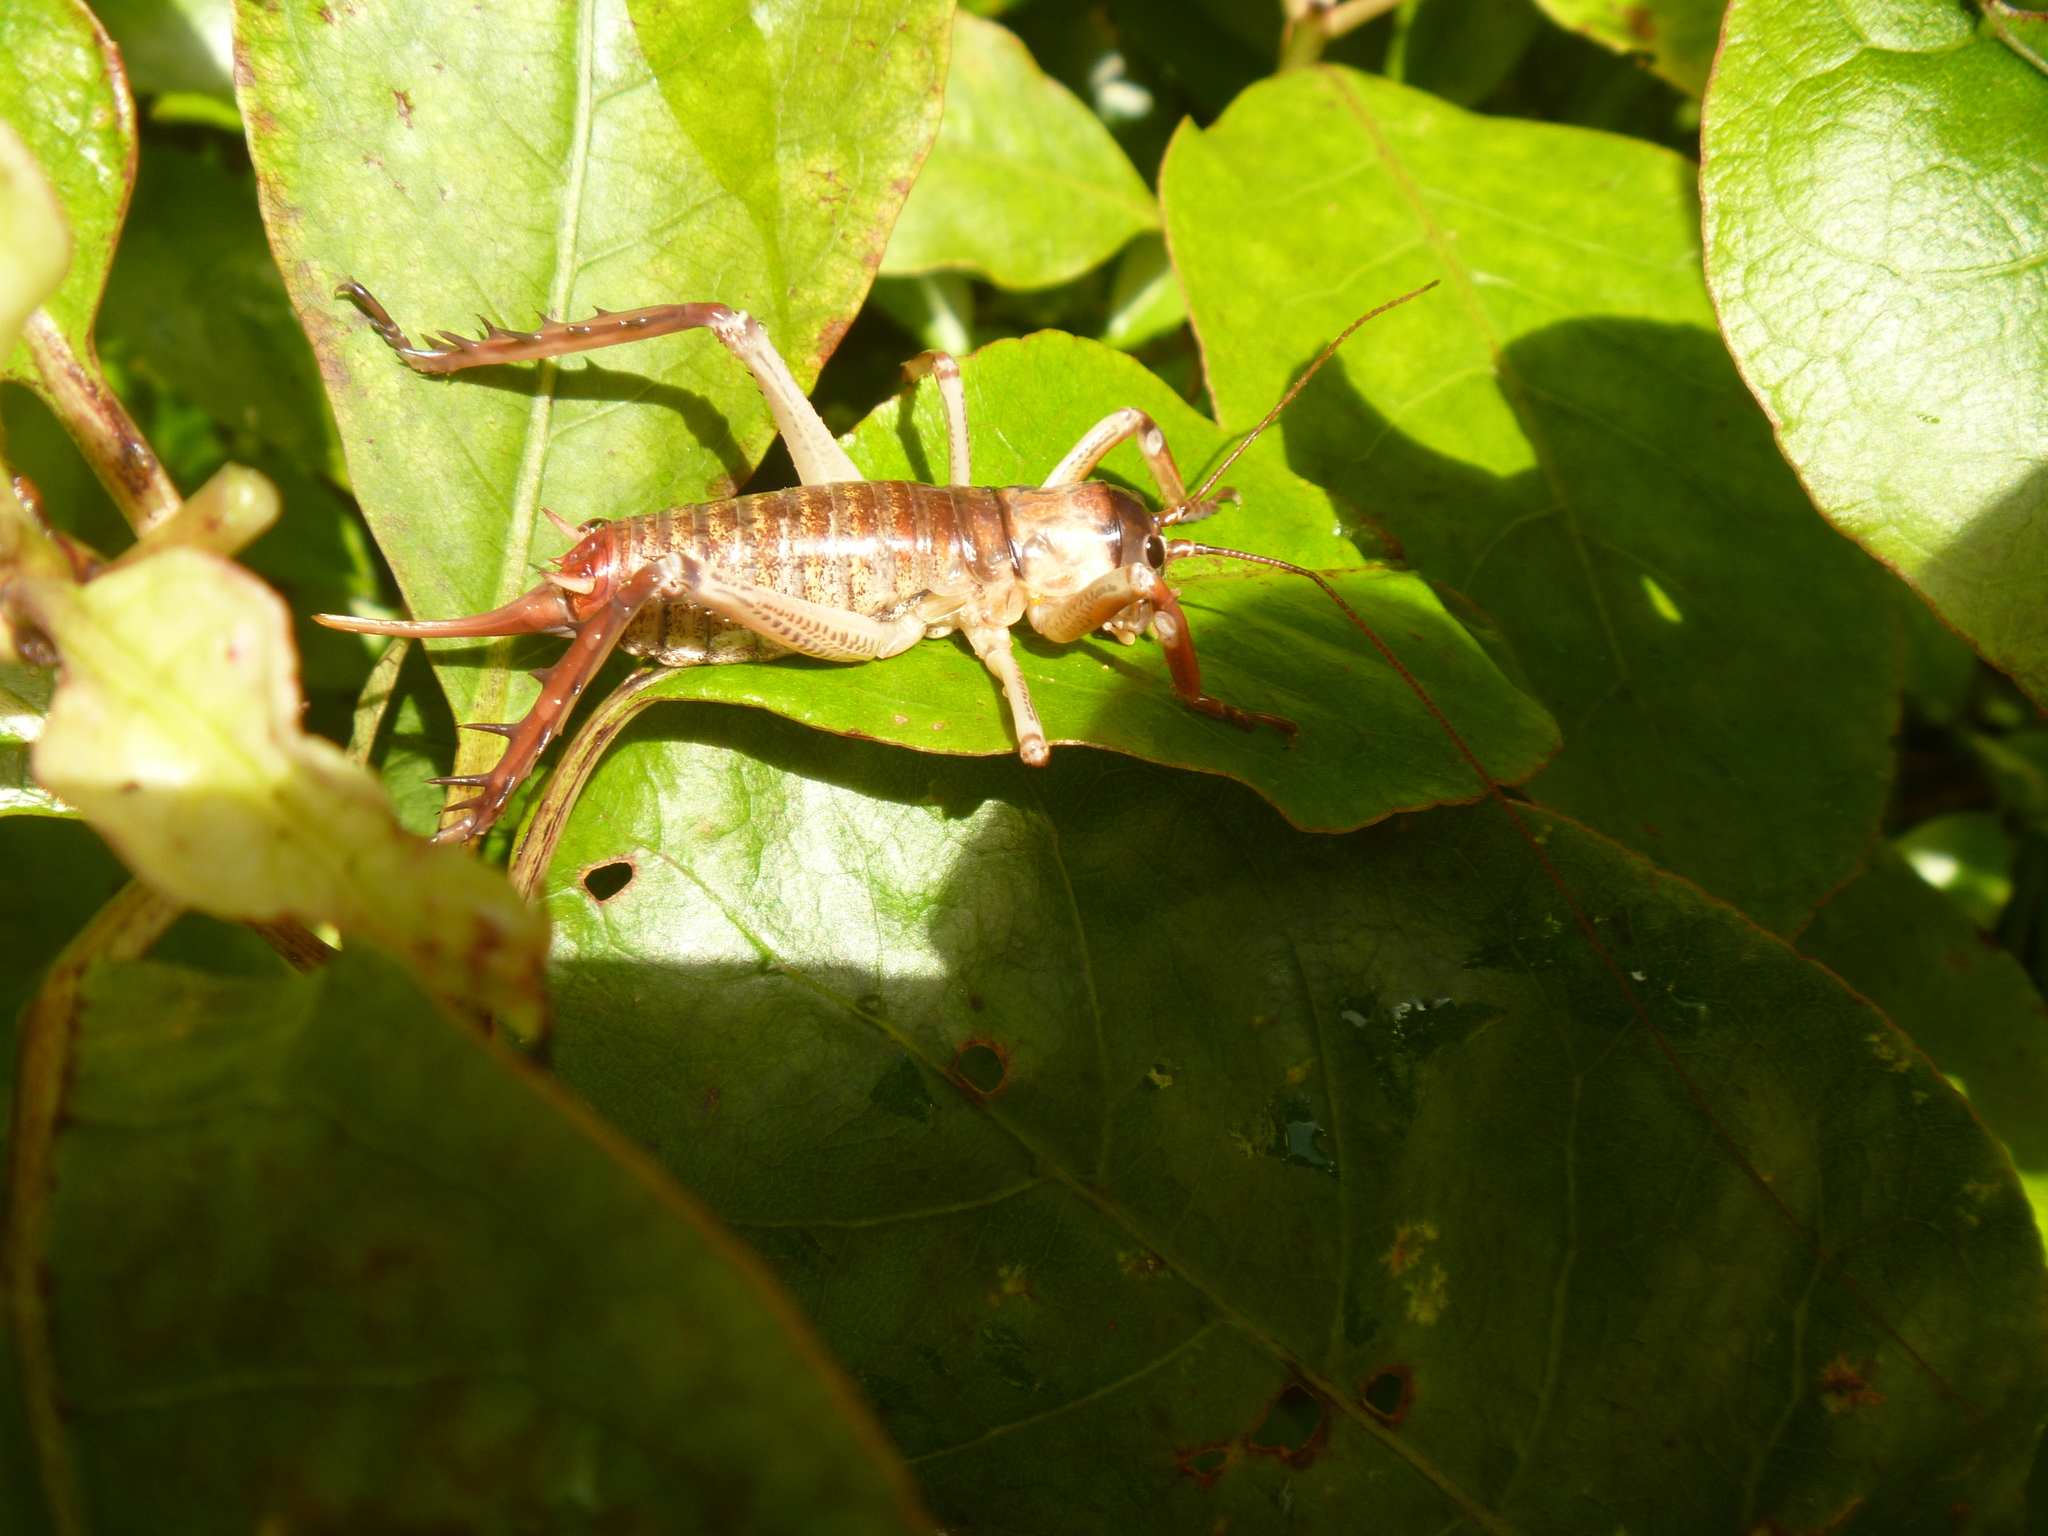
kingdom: Animalia
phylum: Arthropoda
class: Insecta
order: Orthoptera
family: Anostostomatidae
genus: Hemideina
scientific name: Hemideina thoracica
